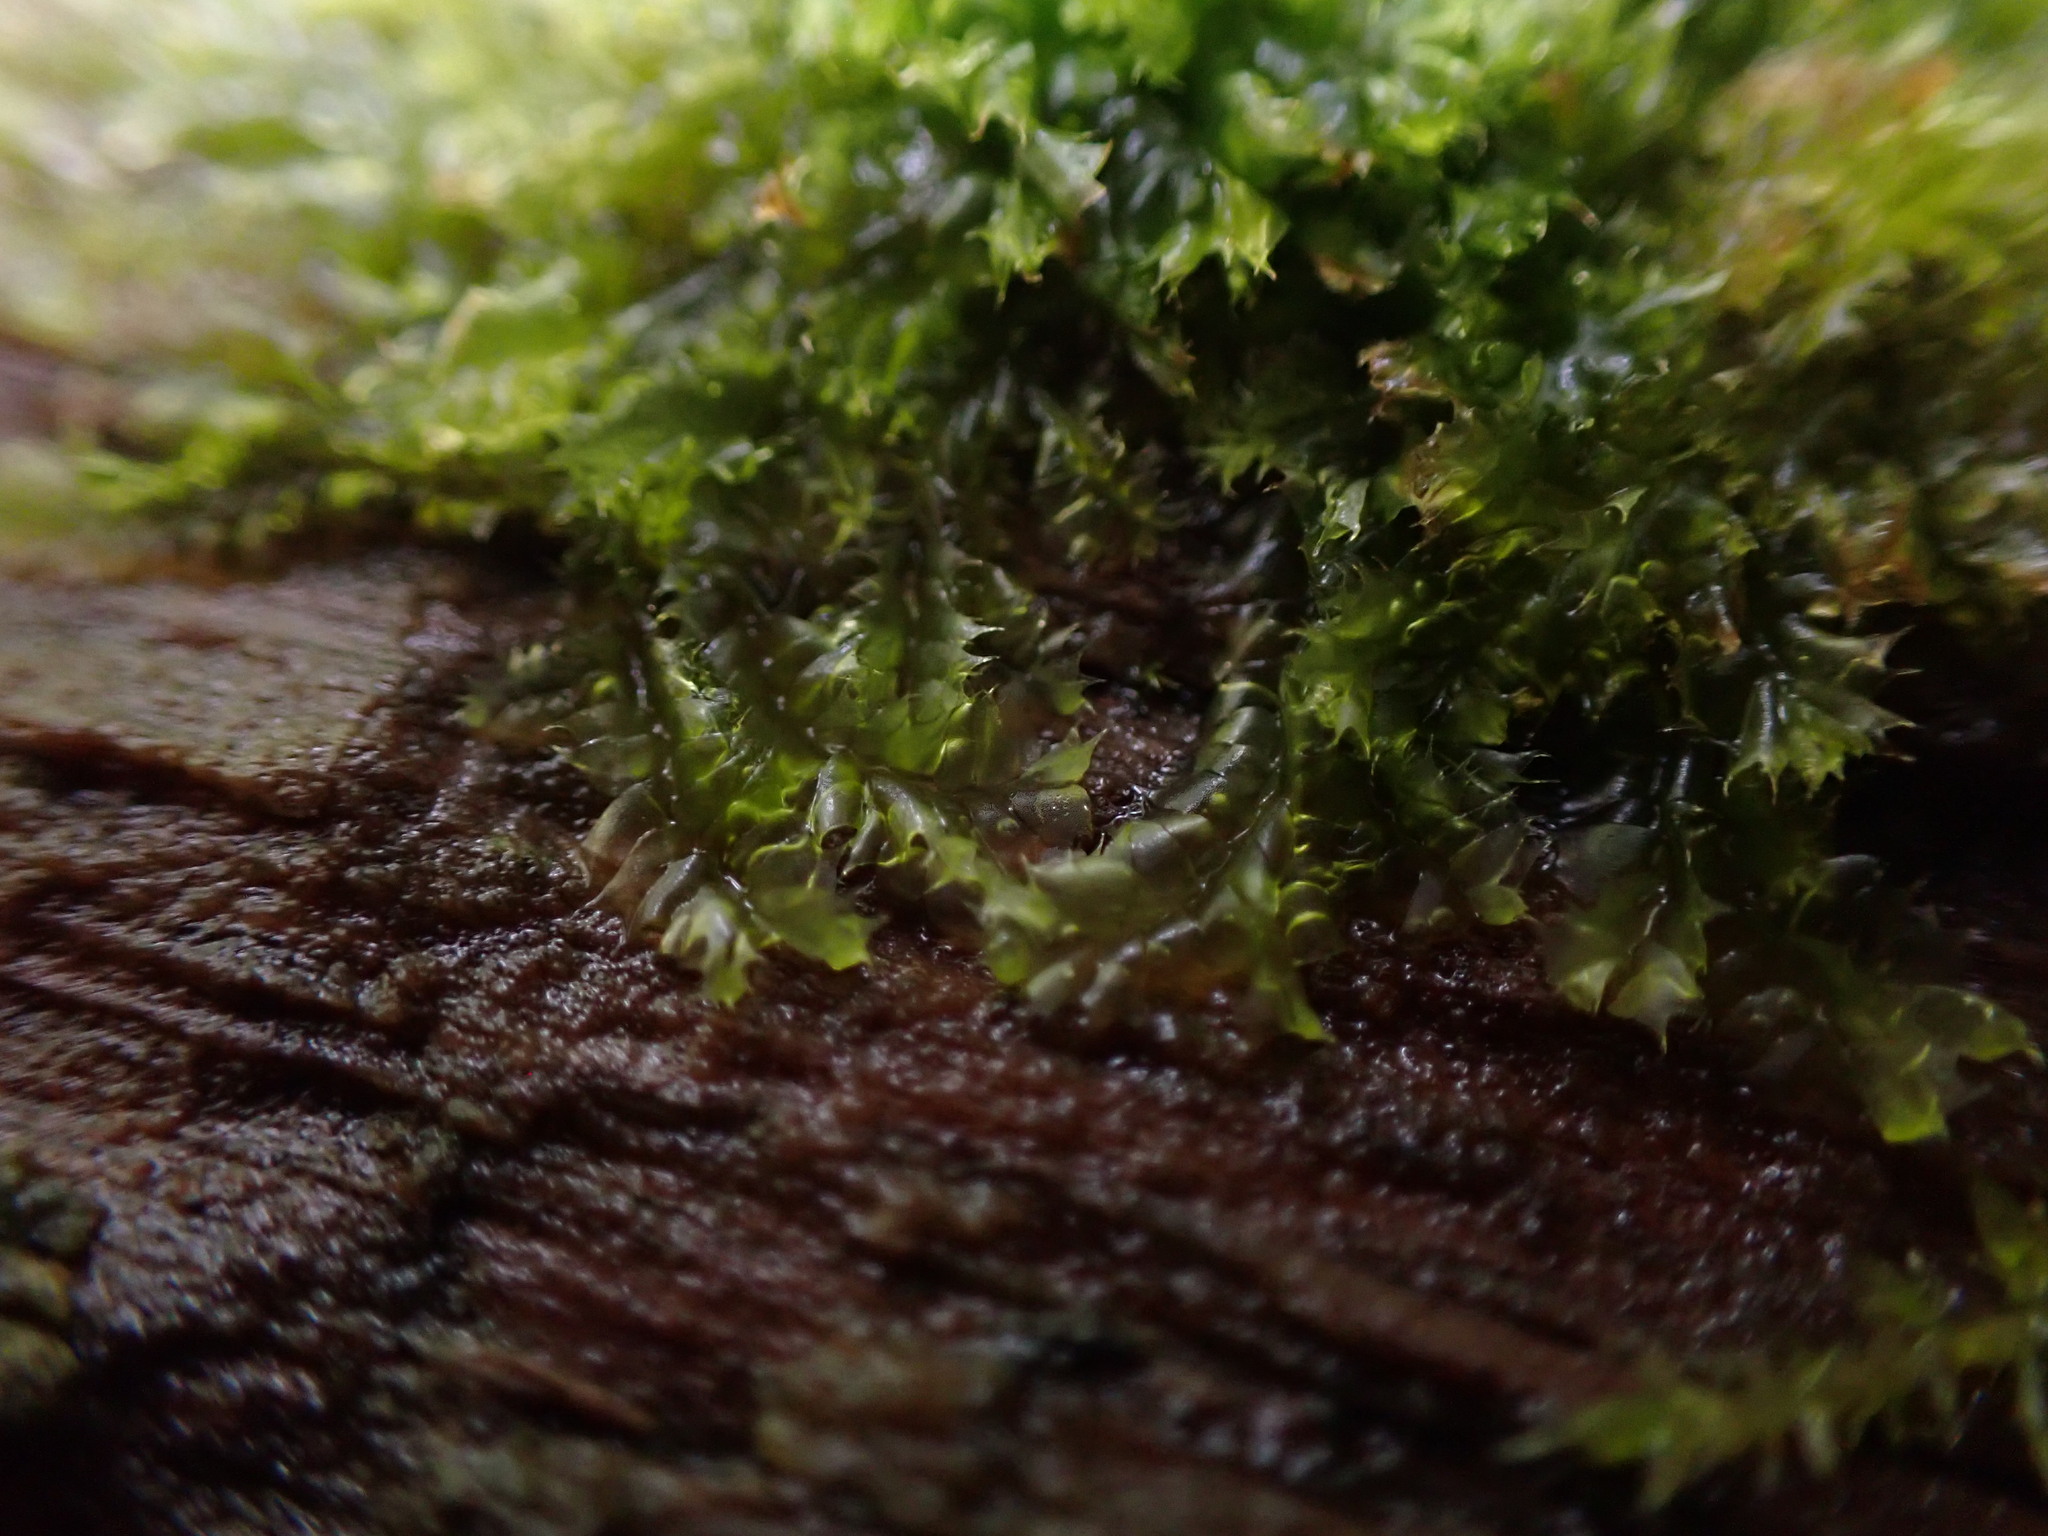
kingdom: Plantae
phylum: Marchantiophyta
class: Jungermanniopsida
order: Jungermanniales
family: Lophocoleaceae
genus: Lophocolea
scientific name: Lophocolea bidentata
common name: Bifid crestwort
